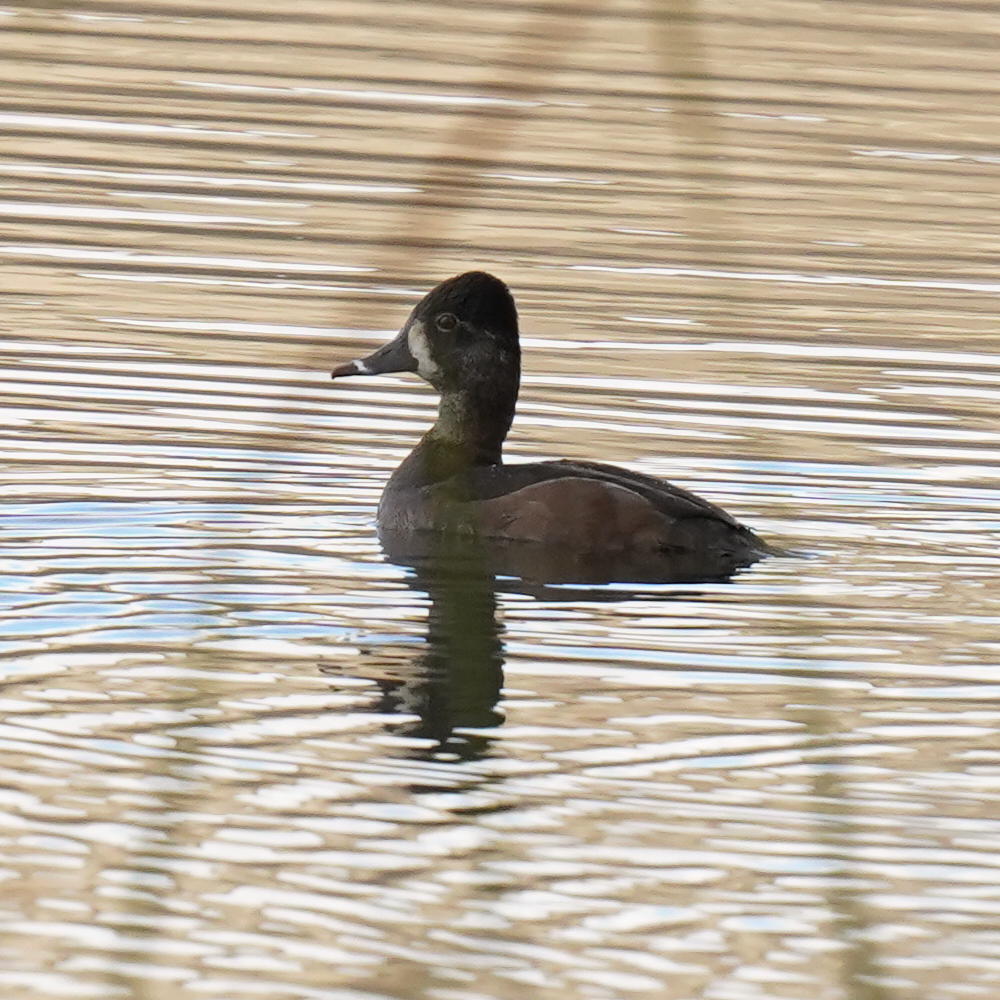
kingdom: Animalia
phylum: Chordata
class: Aves
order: Anseriformes
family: Anatidae
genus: Aythya
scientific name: Aythya collaris
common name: Ring-necked duck
